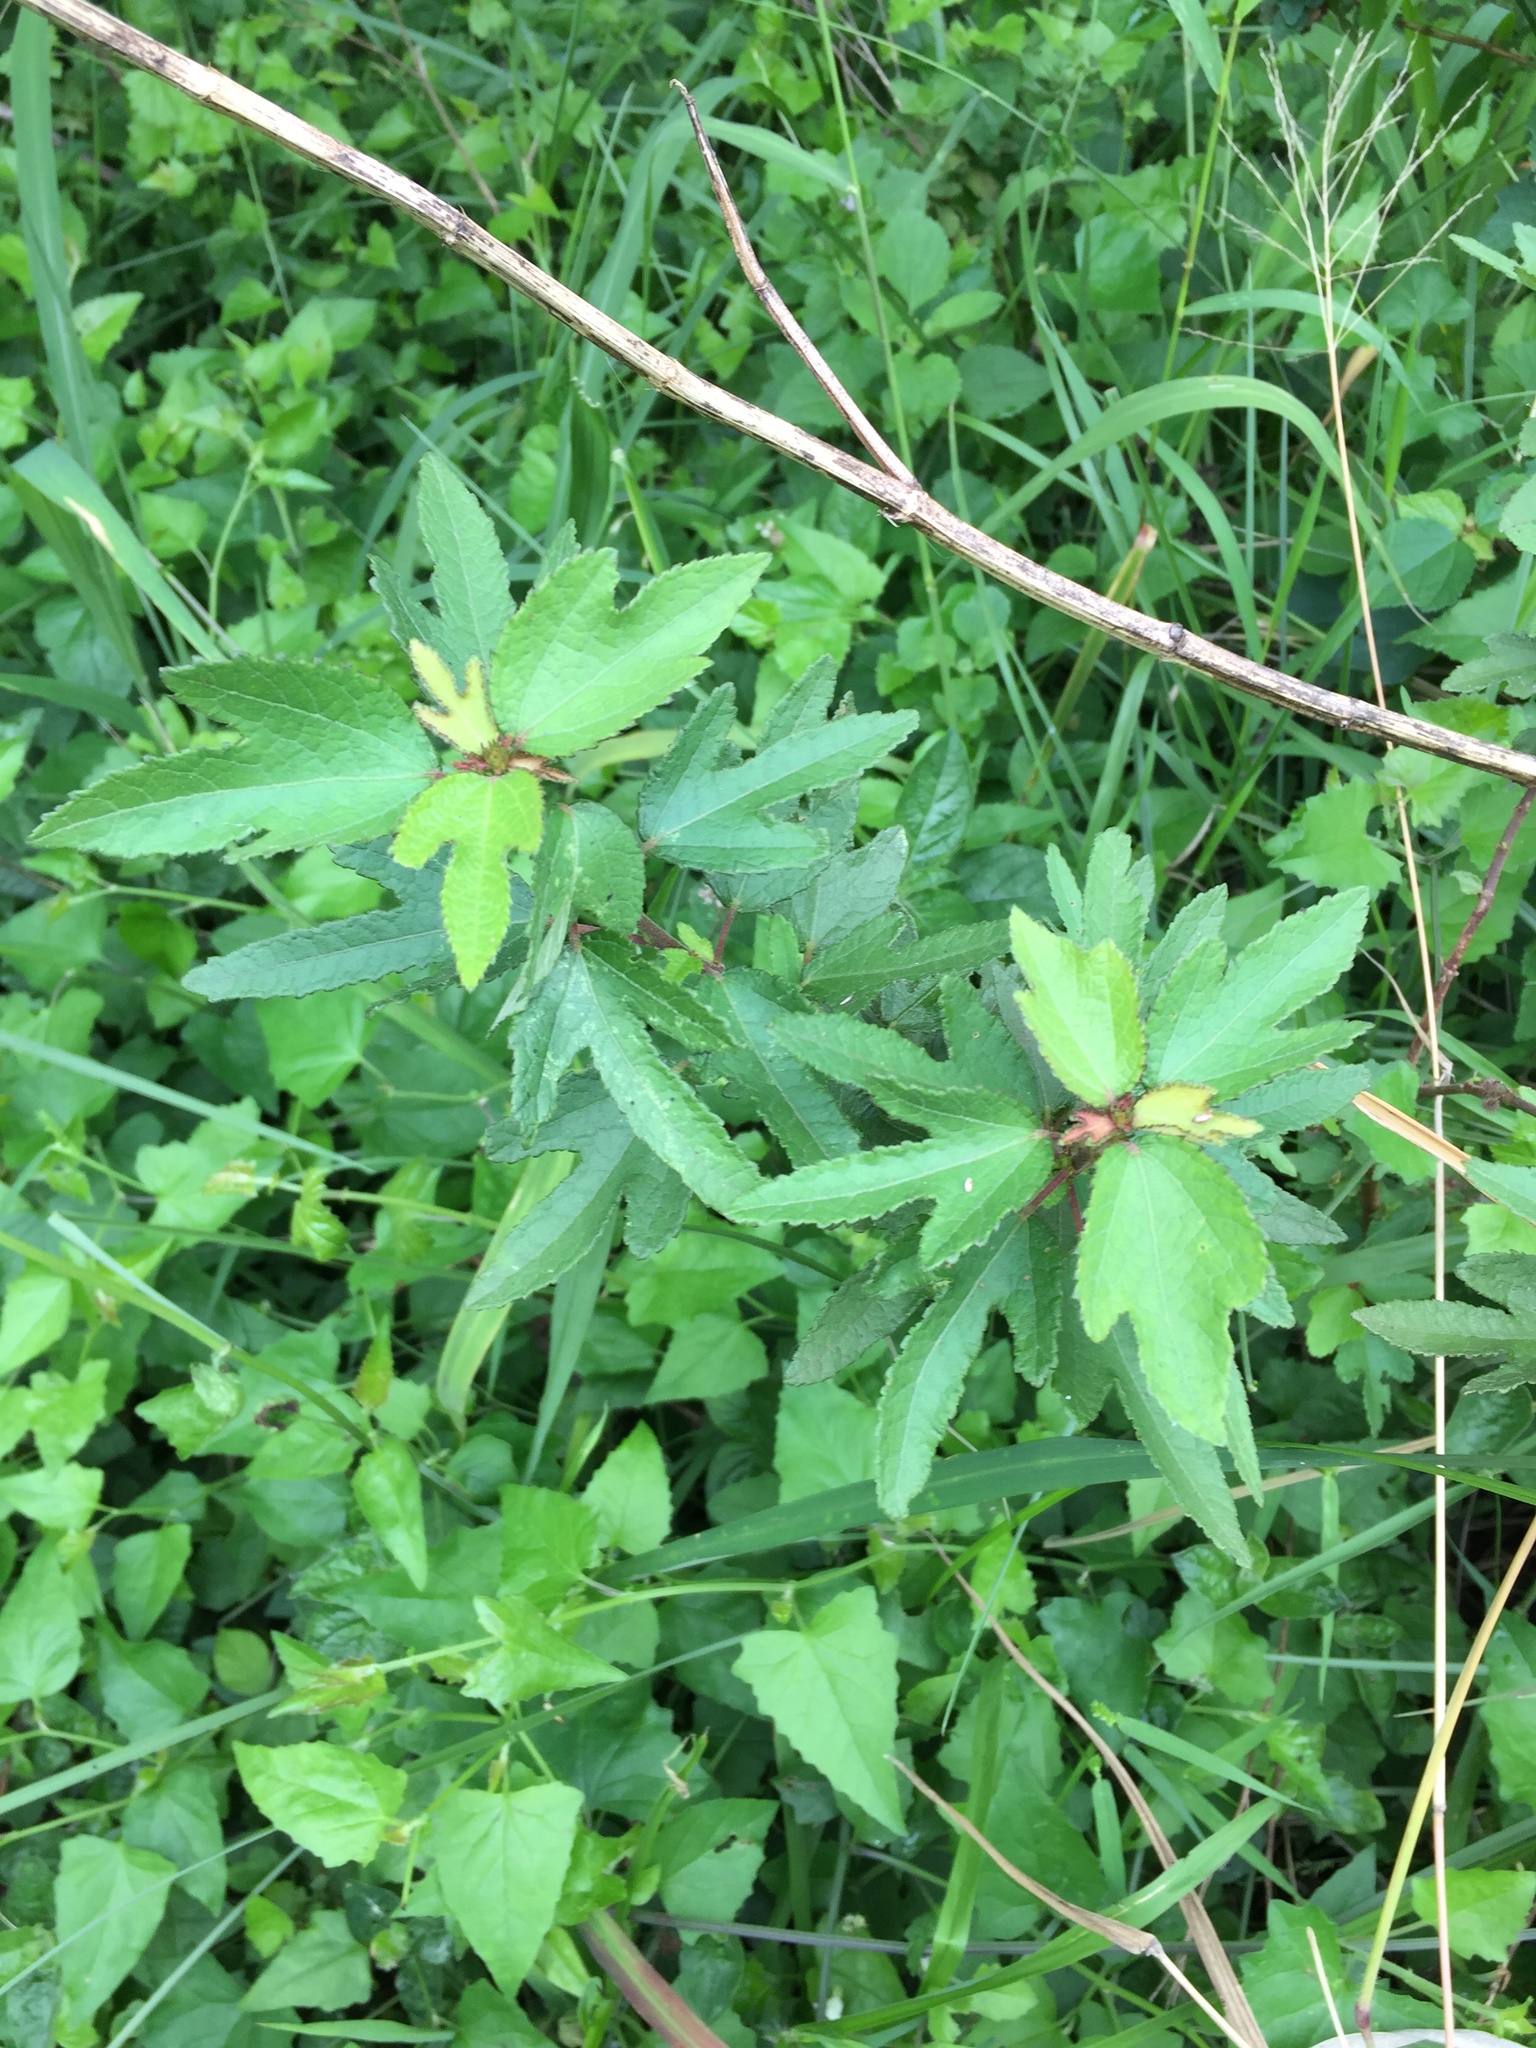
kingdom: Plantae
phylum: Tracheophyta
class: Magnoliopsida
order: Malvales
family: Malvaceae
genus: Triumfetta
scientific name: Triumfetta rhomboidea
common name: Diamond burbark
